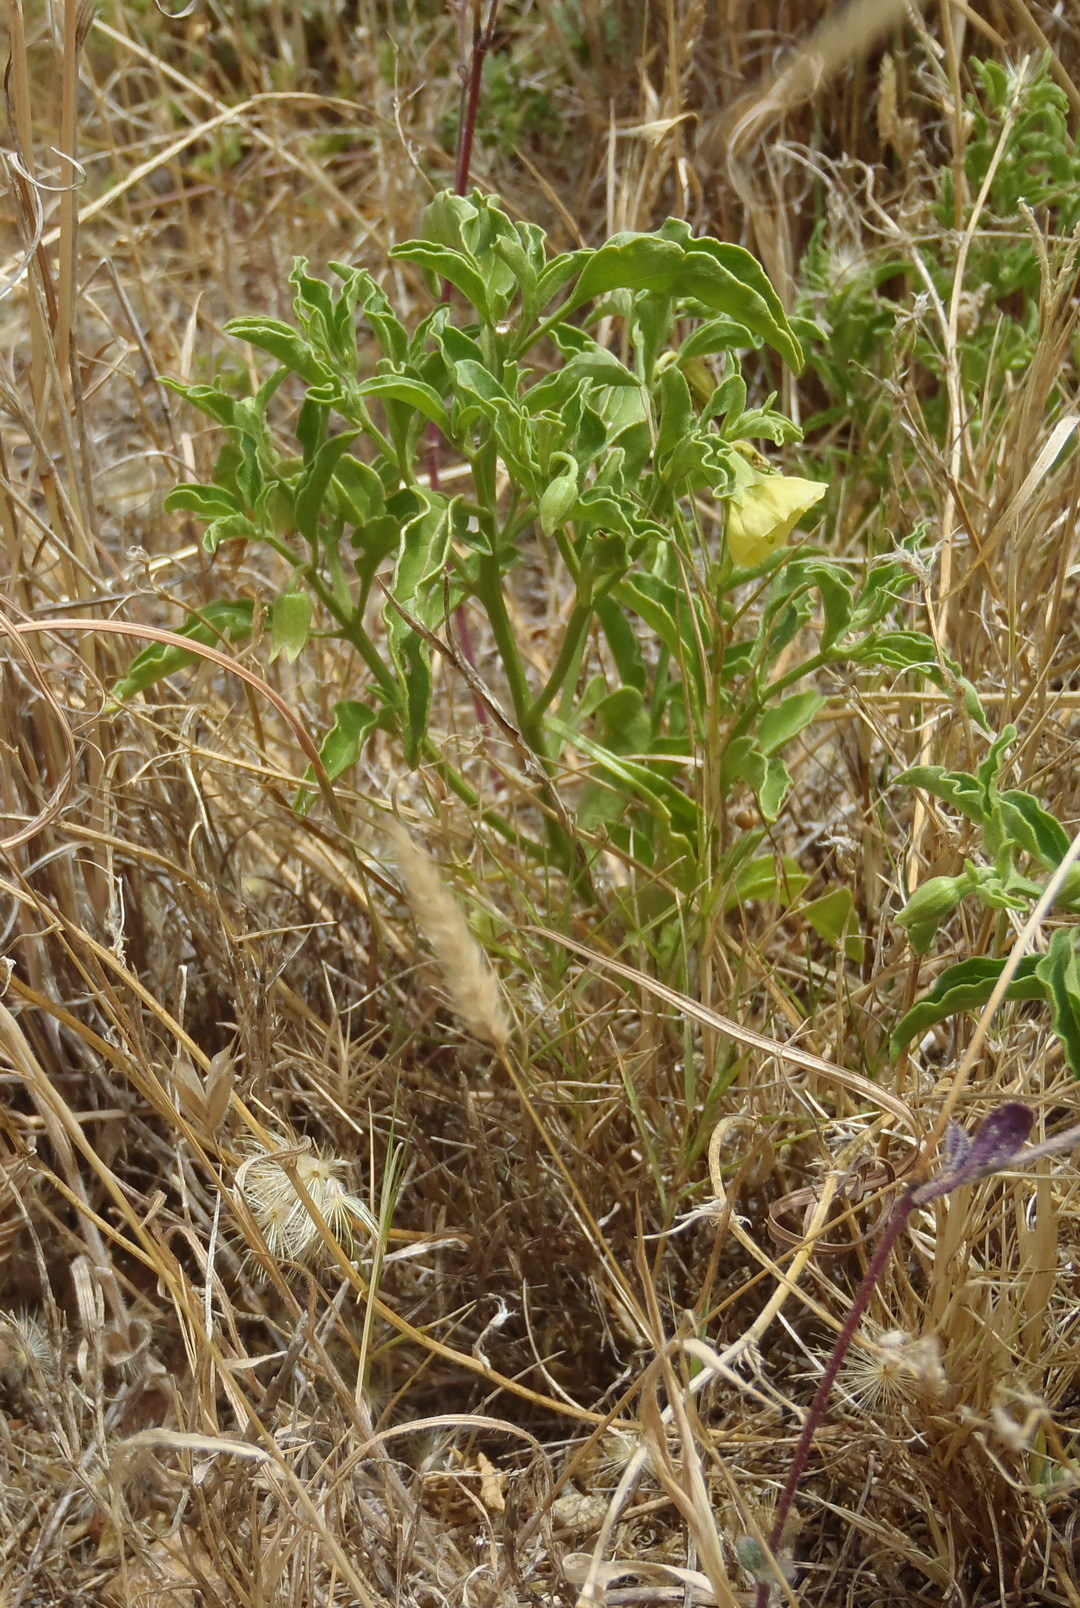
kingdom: Plantae
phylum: Tracheophyta
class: Magnoliopsida
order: Solanales
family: Solanaceae
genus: Physalis
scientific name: Physalis viscosa
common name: Stellate ground-cherry
